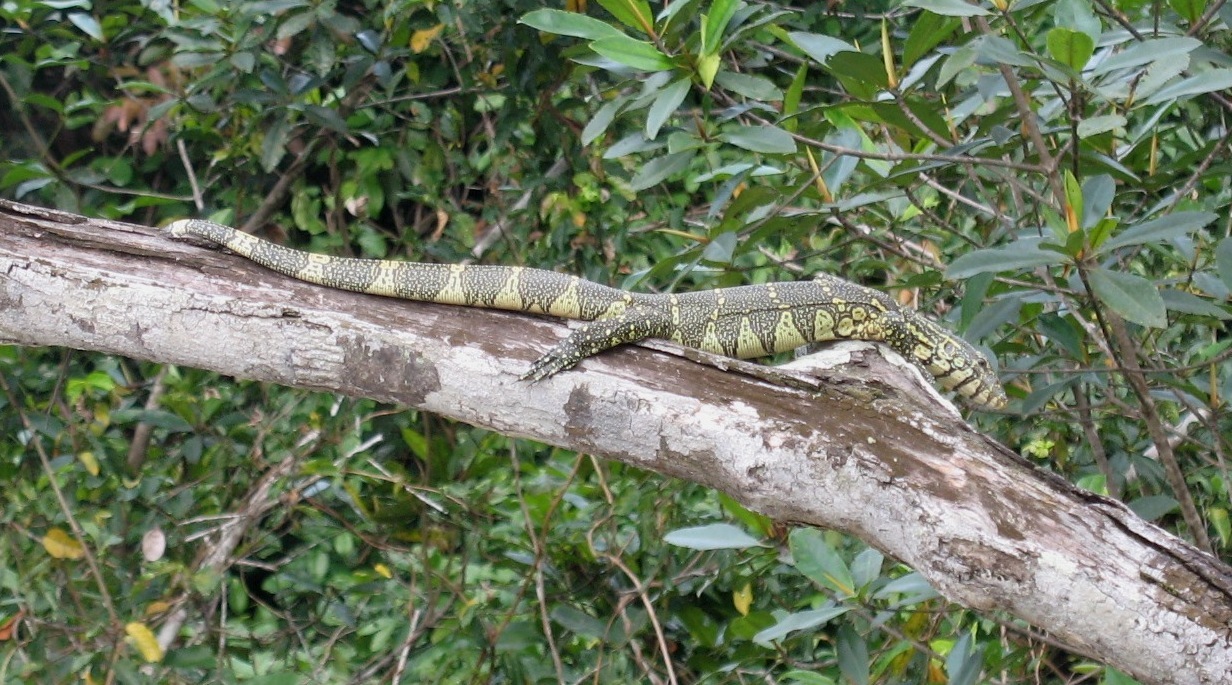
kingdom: Animalia
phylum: Chordata
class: Squamata
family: Varanidae
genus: Varanus
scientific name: Varanus niloticus
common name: Nile monitor
